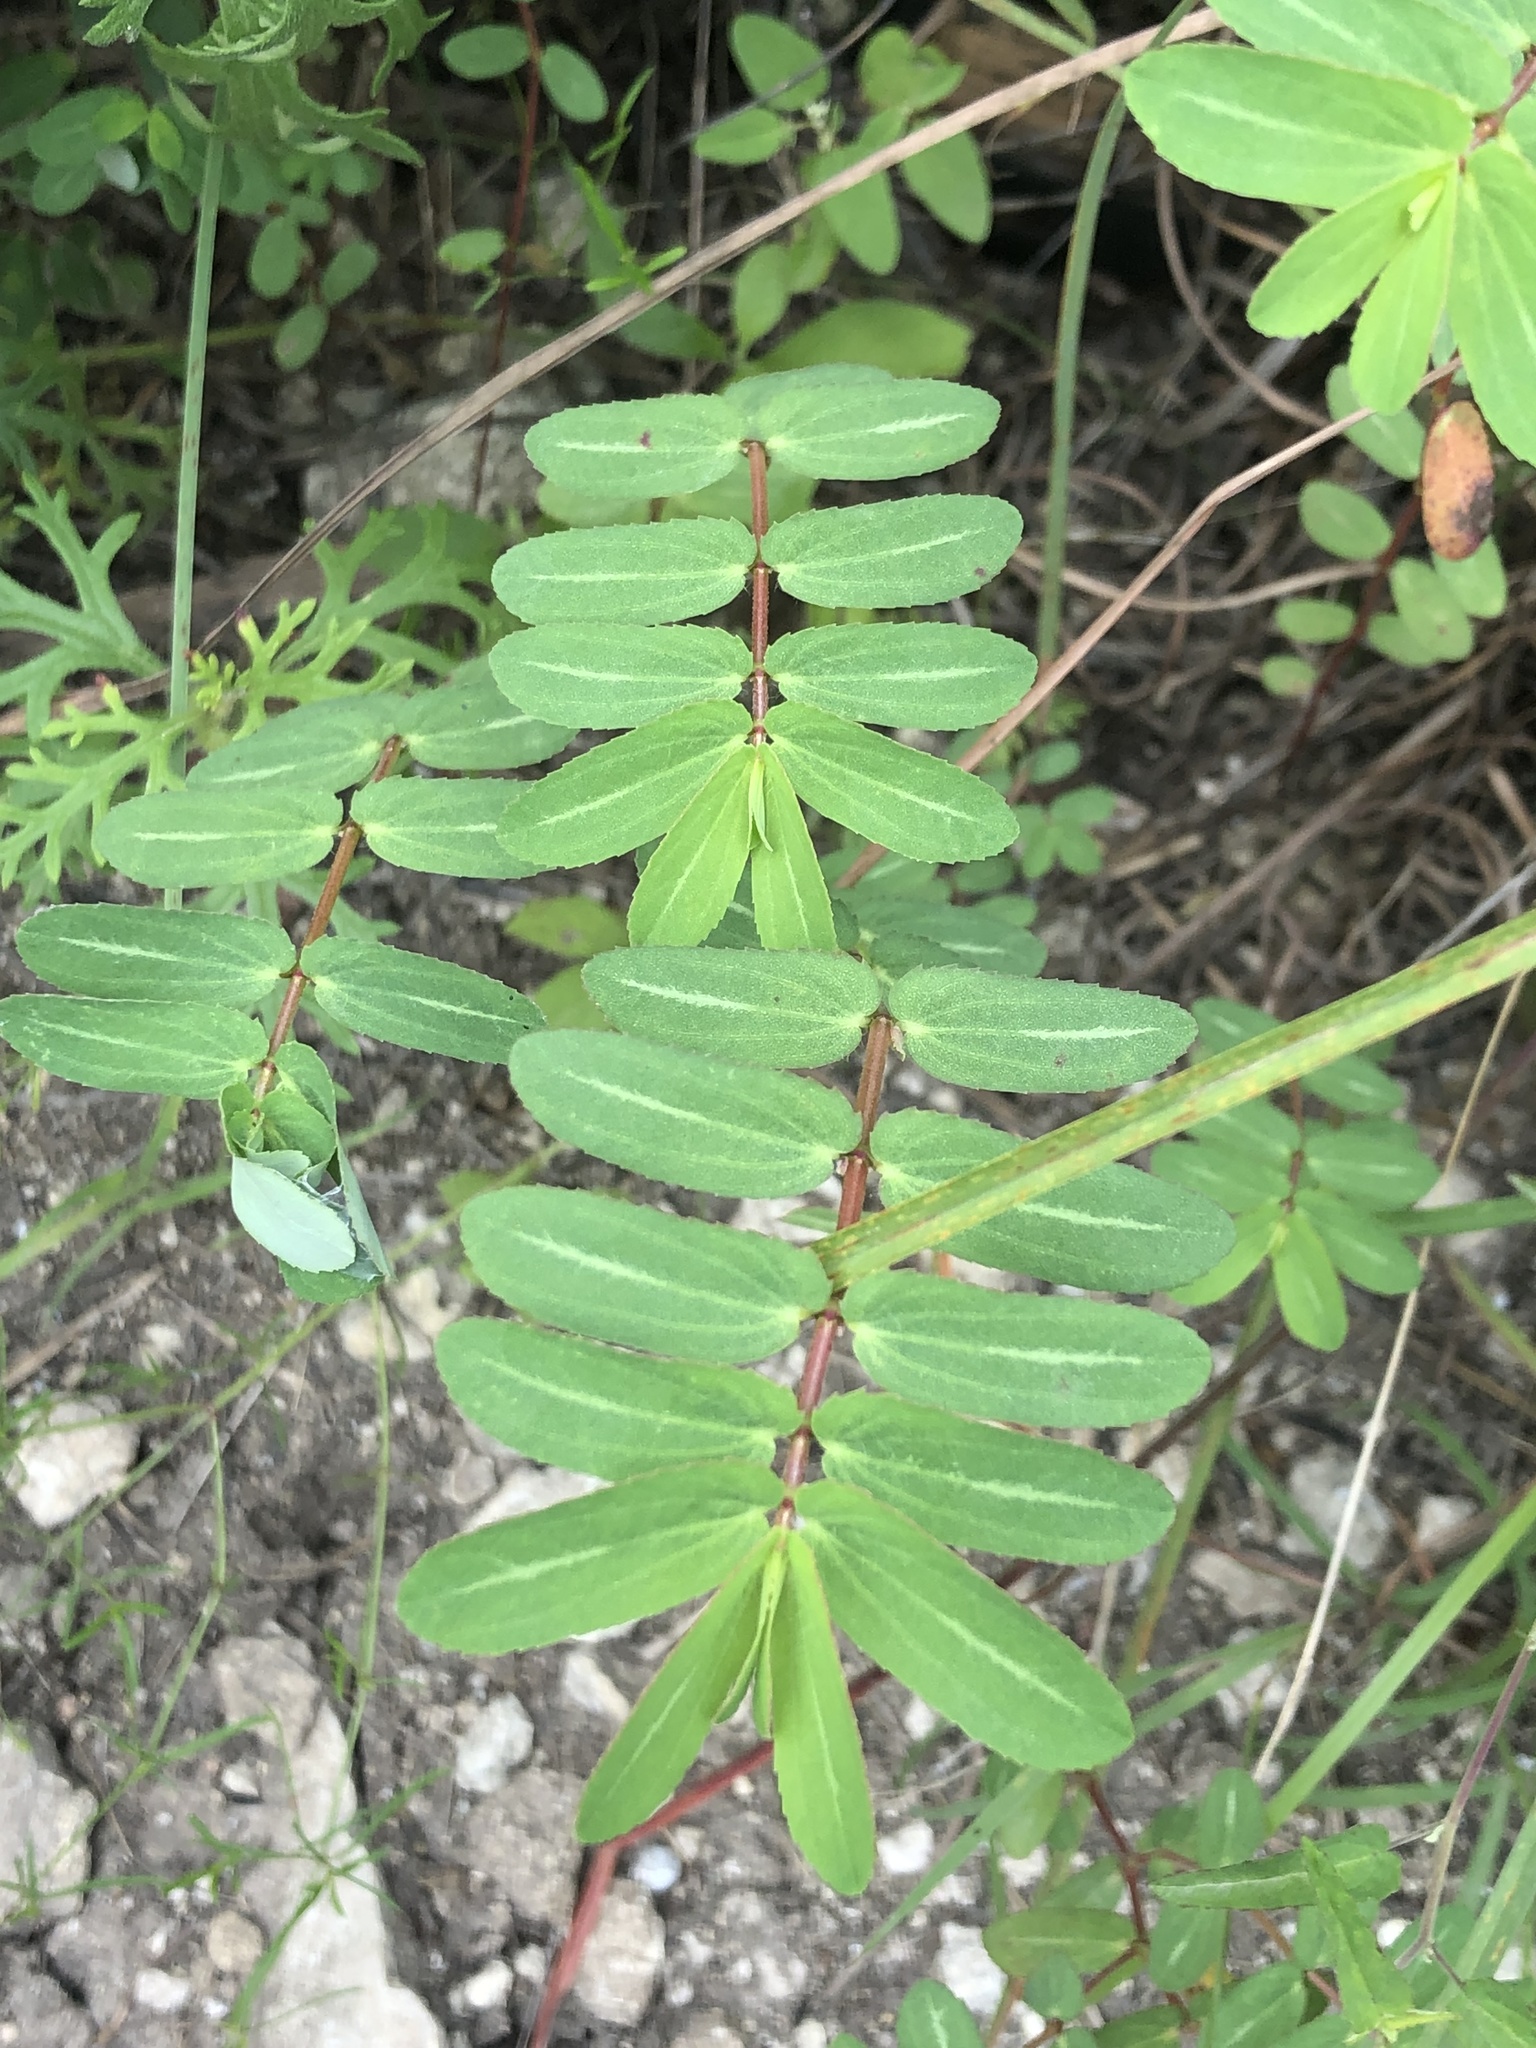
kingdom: Plantae
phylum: Tracheophyta
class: Magnoliopsida
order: Malpighiales
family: Euphorbiaceae
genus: Euphorbia
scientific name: Euphorbia nutans
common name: Eyebane
